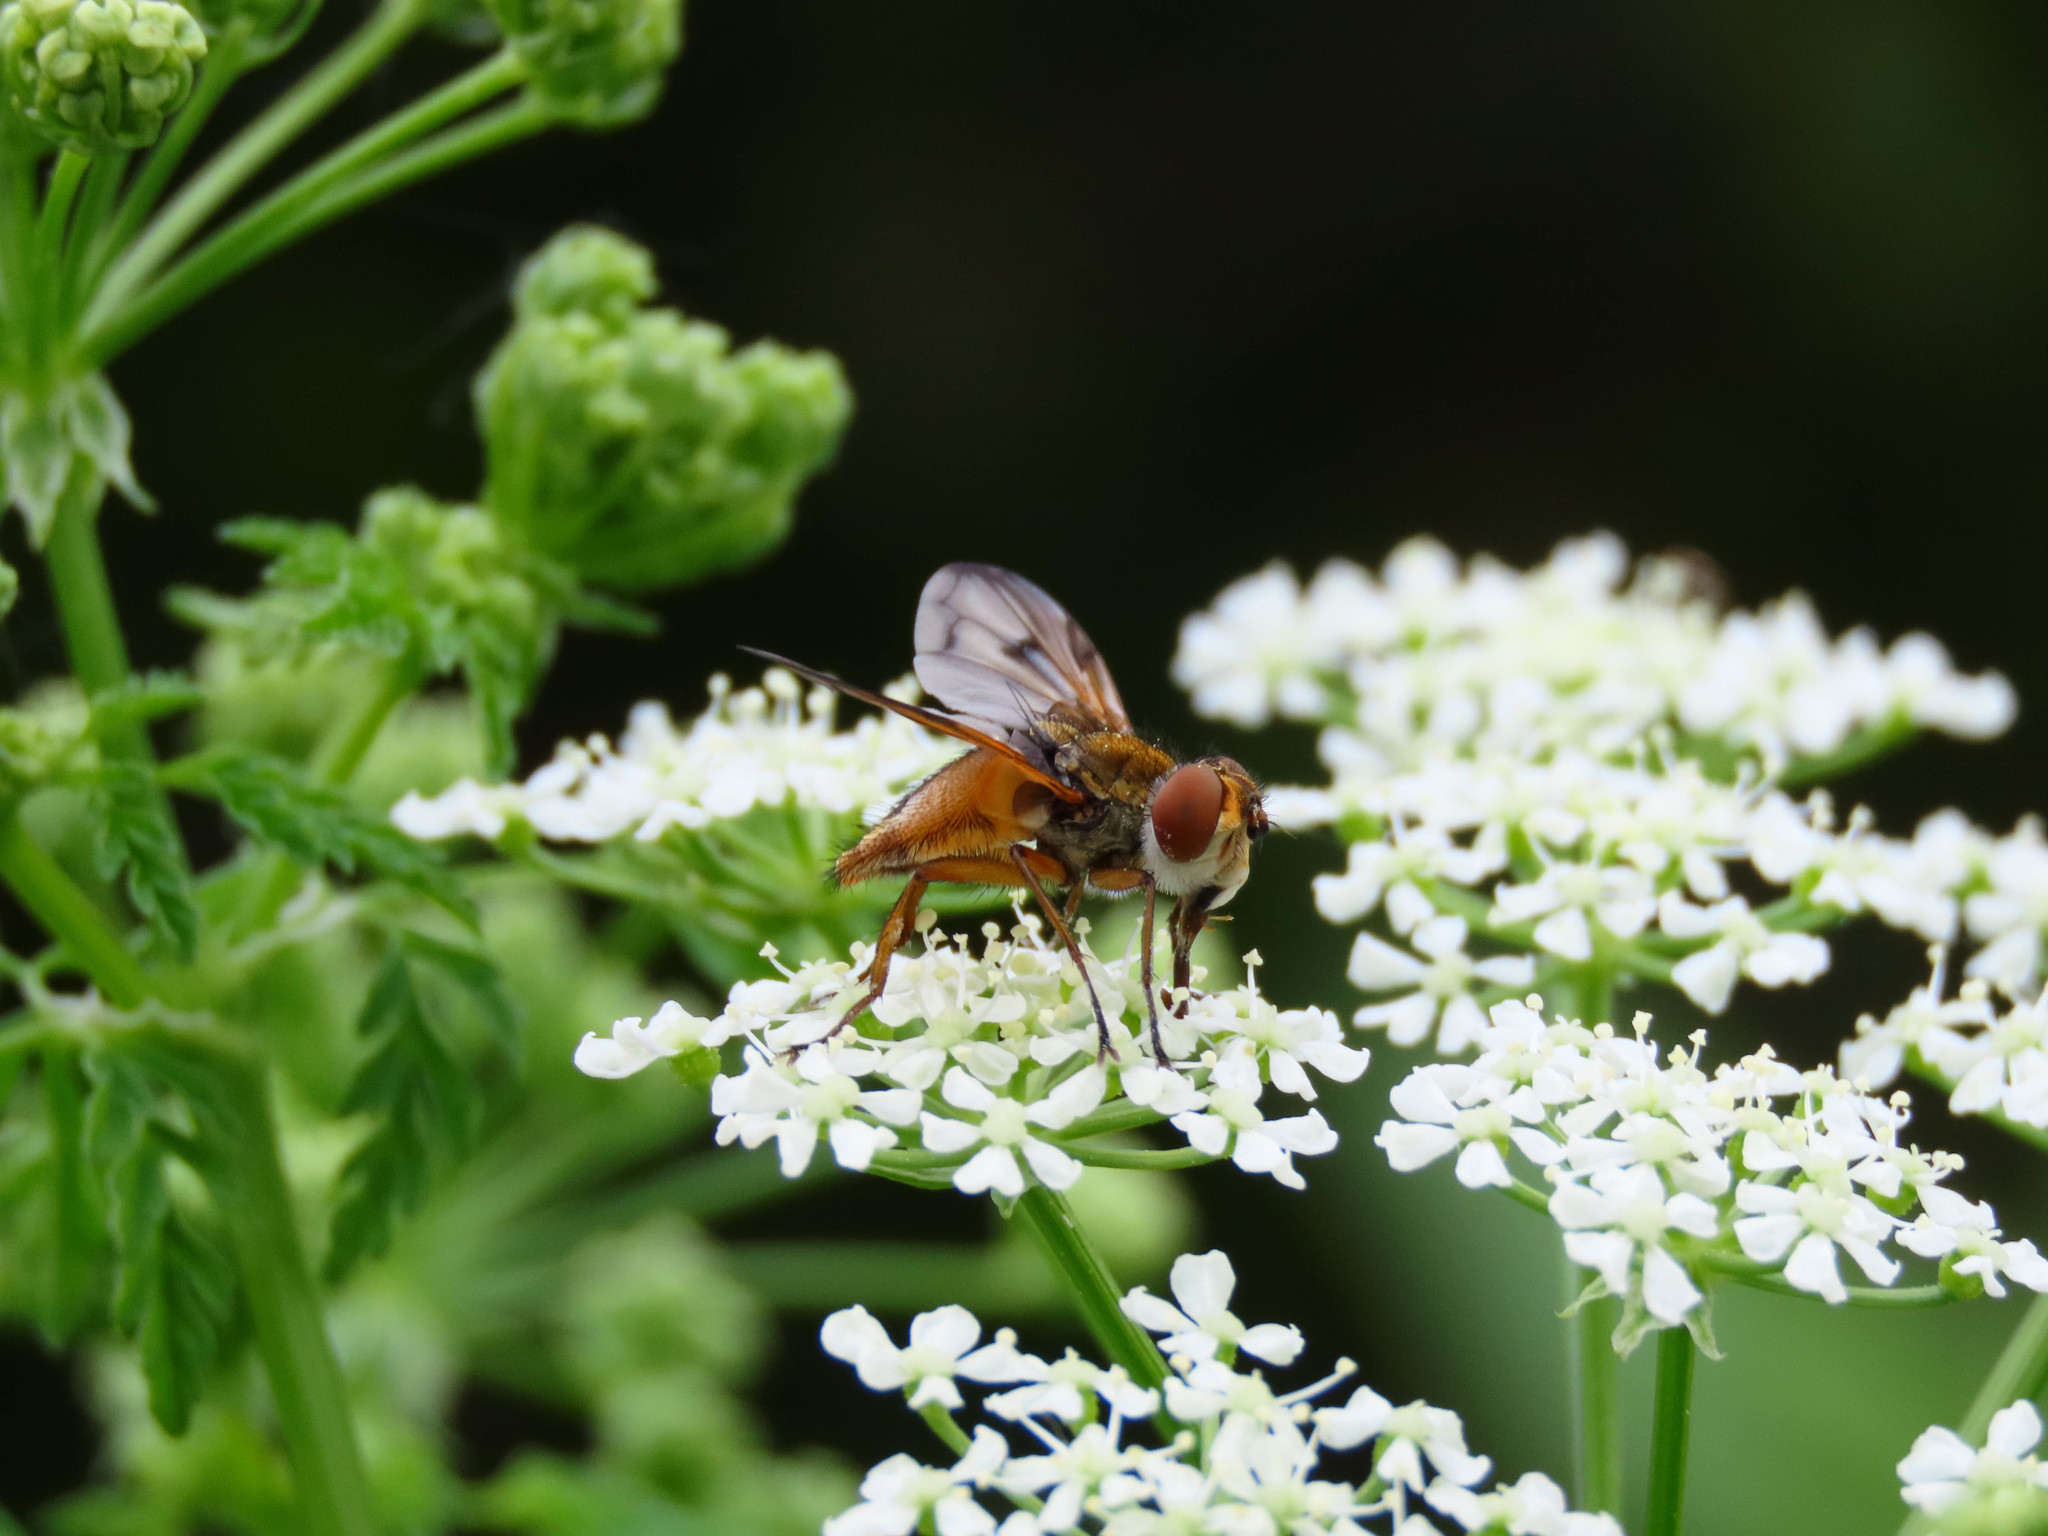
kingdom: Animalia
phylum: Arthropoda
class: Insecta
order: Diptera
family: Tachinidae
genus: Ectophasia
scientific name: Ectophasia crassipennis
